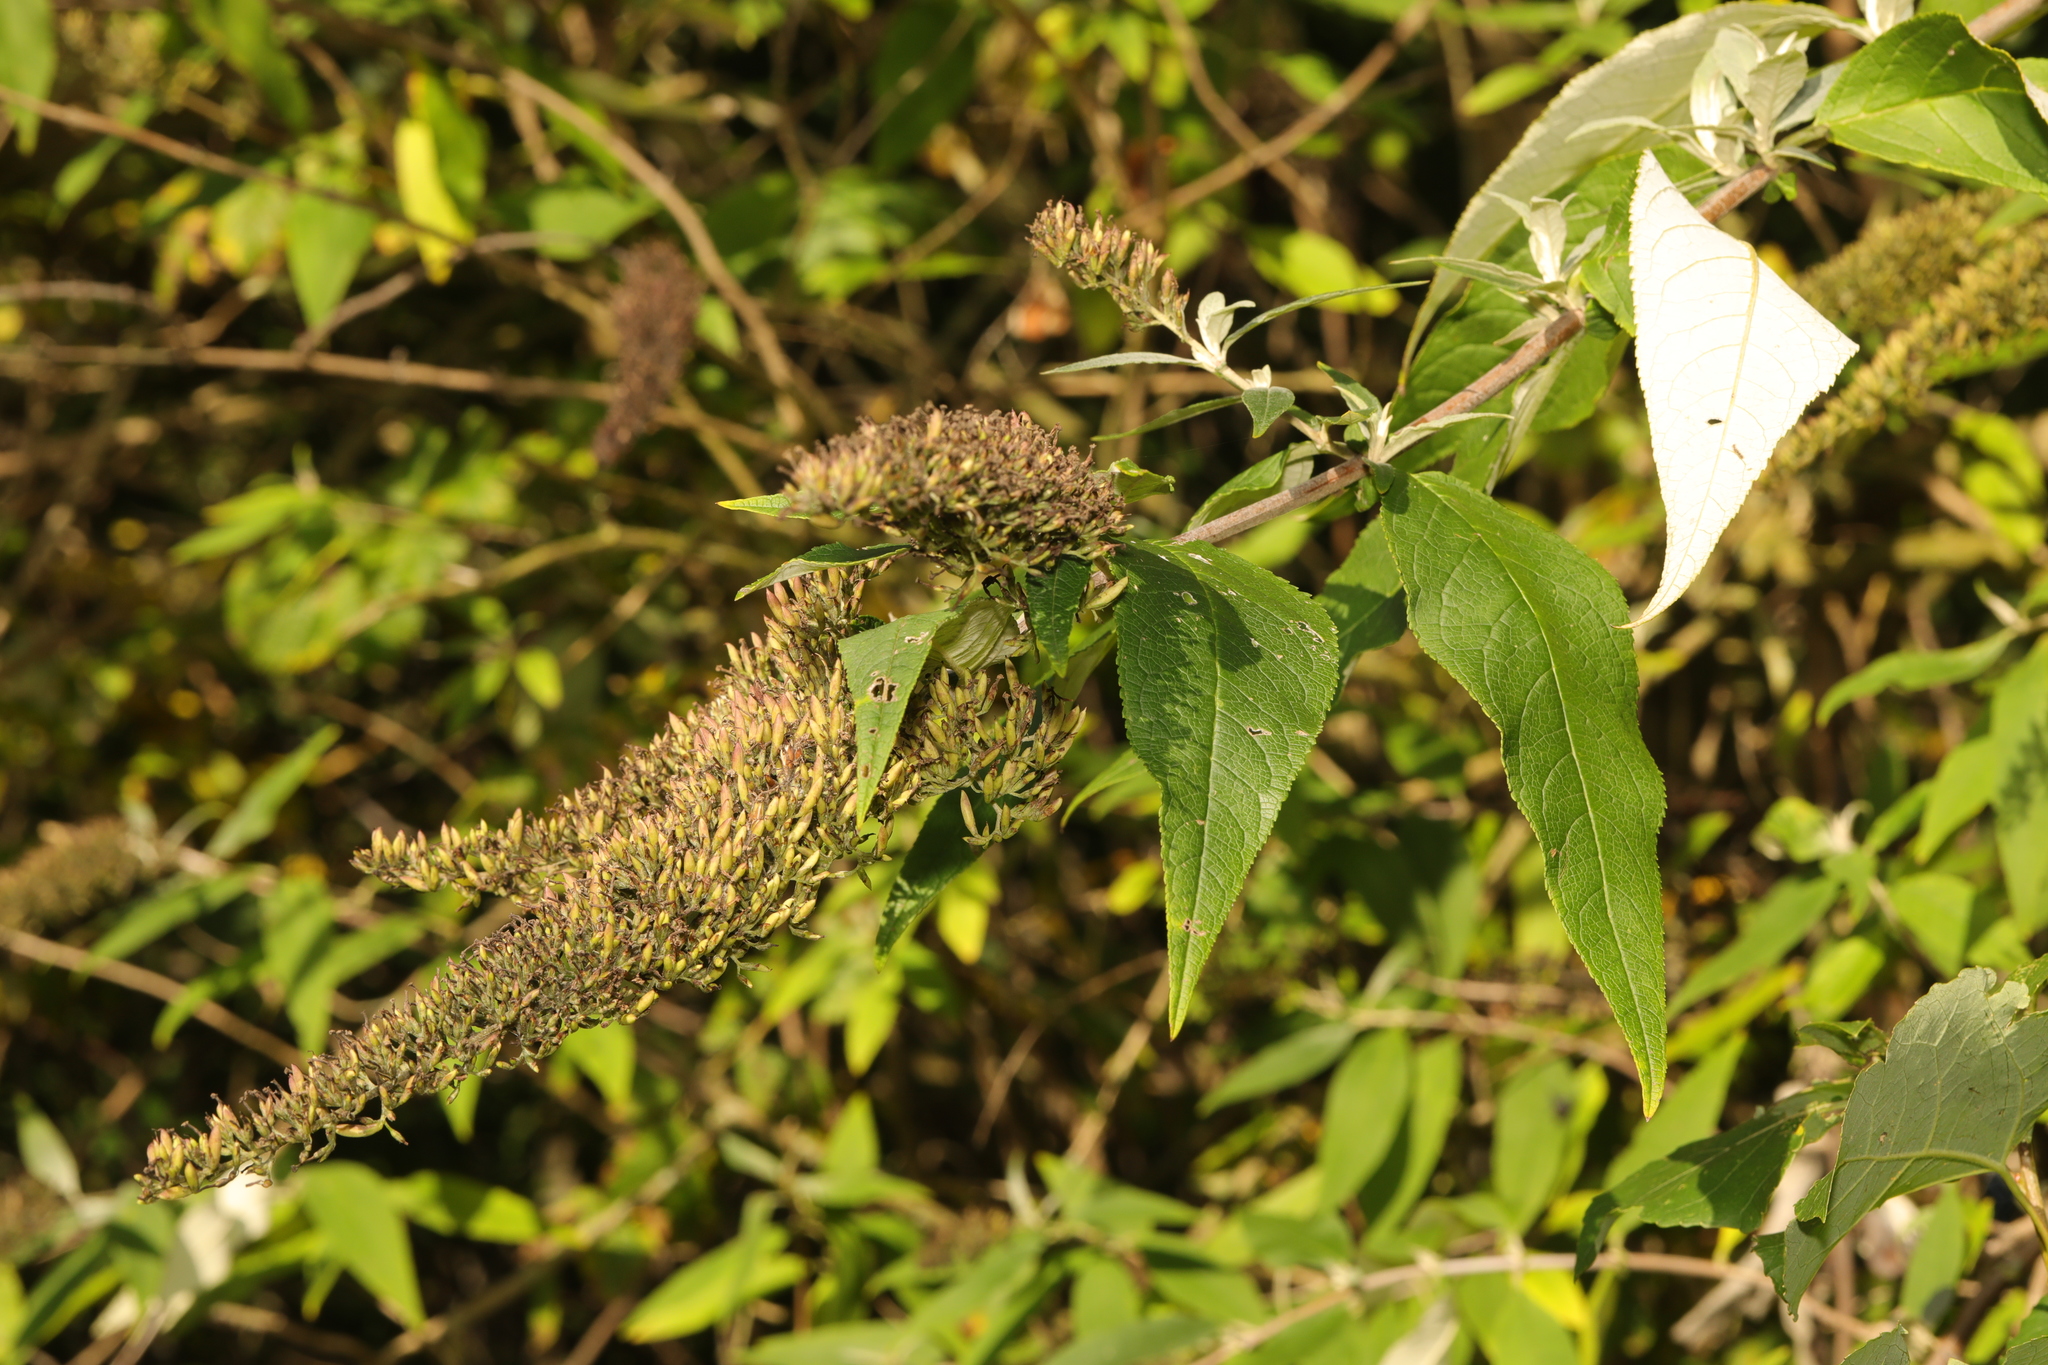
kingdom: Plantae
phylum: Tracheophyta
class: Magnoliopsida
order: Lamiales
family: Scrophulariaceae
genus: Buddleja
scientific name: Buddleja davidii
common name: Butterfly-bush
